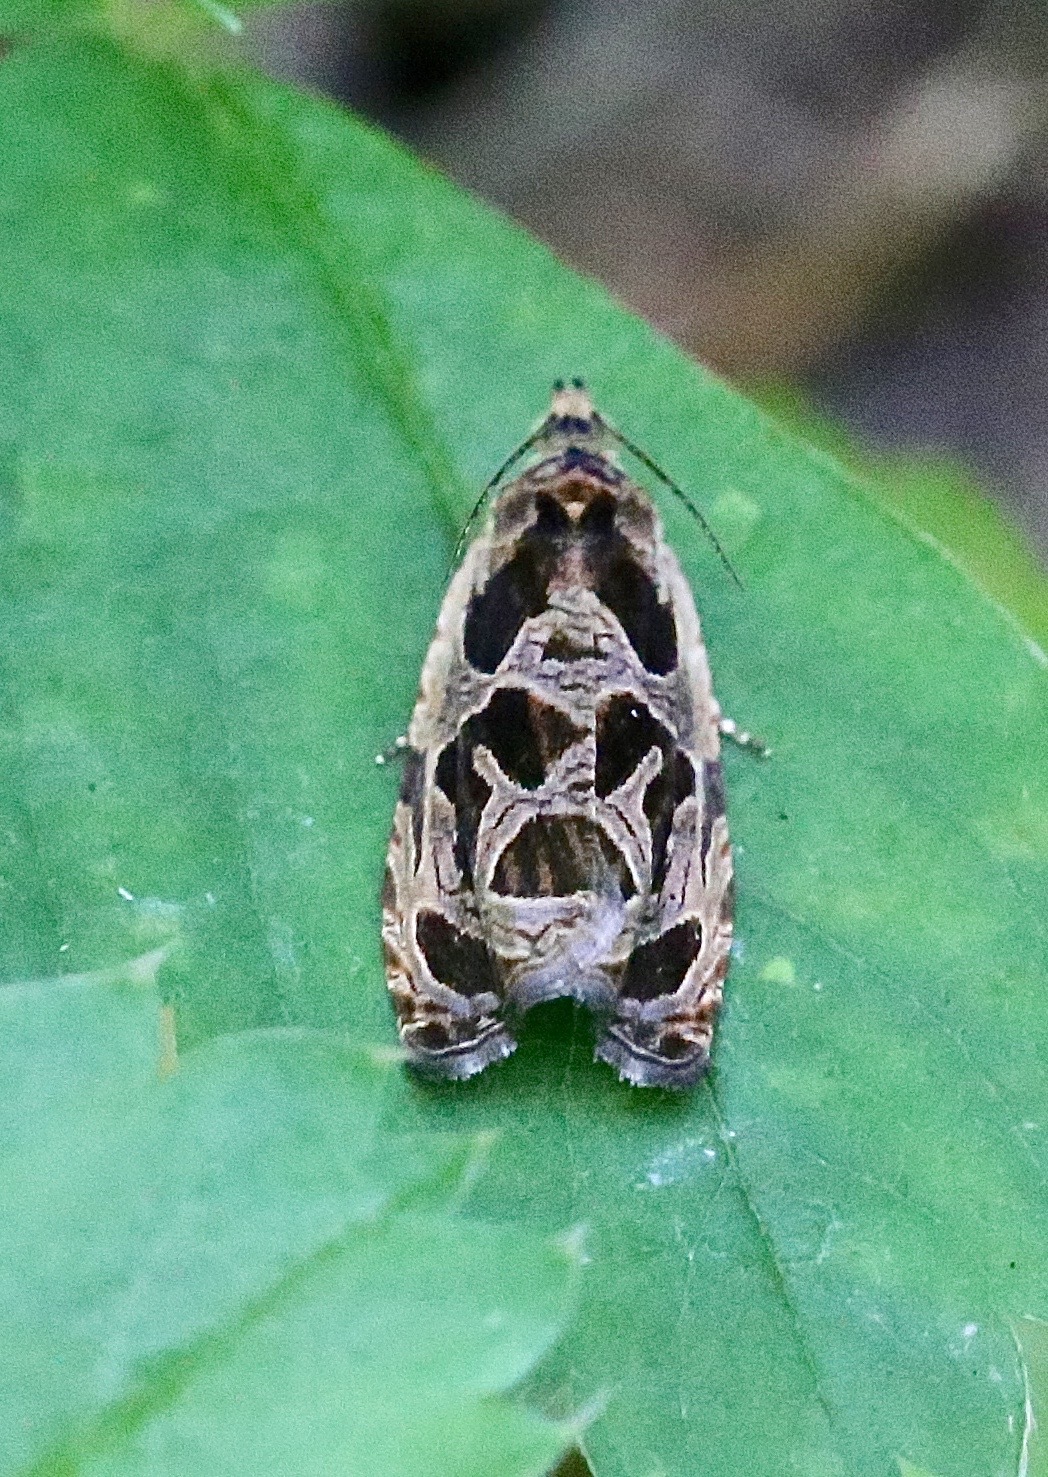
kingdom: Animalia
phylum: Arthropoda
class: Insecta
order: Lepidoptera
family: Tortricidae
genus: Olethreutes
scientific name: Olethreutes tilianum
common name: Basswood olethreutes moth
